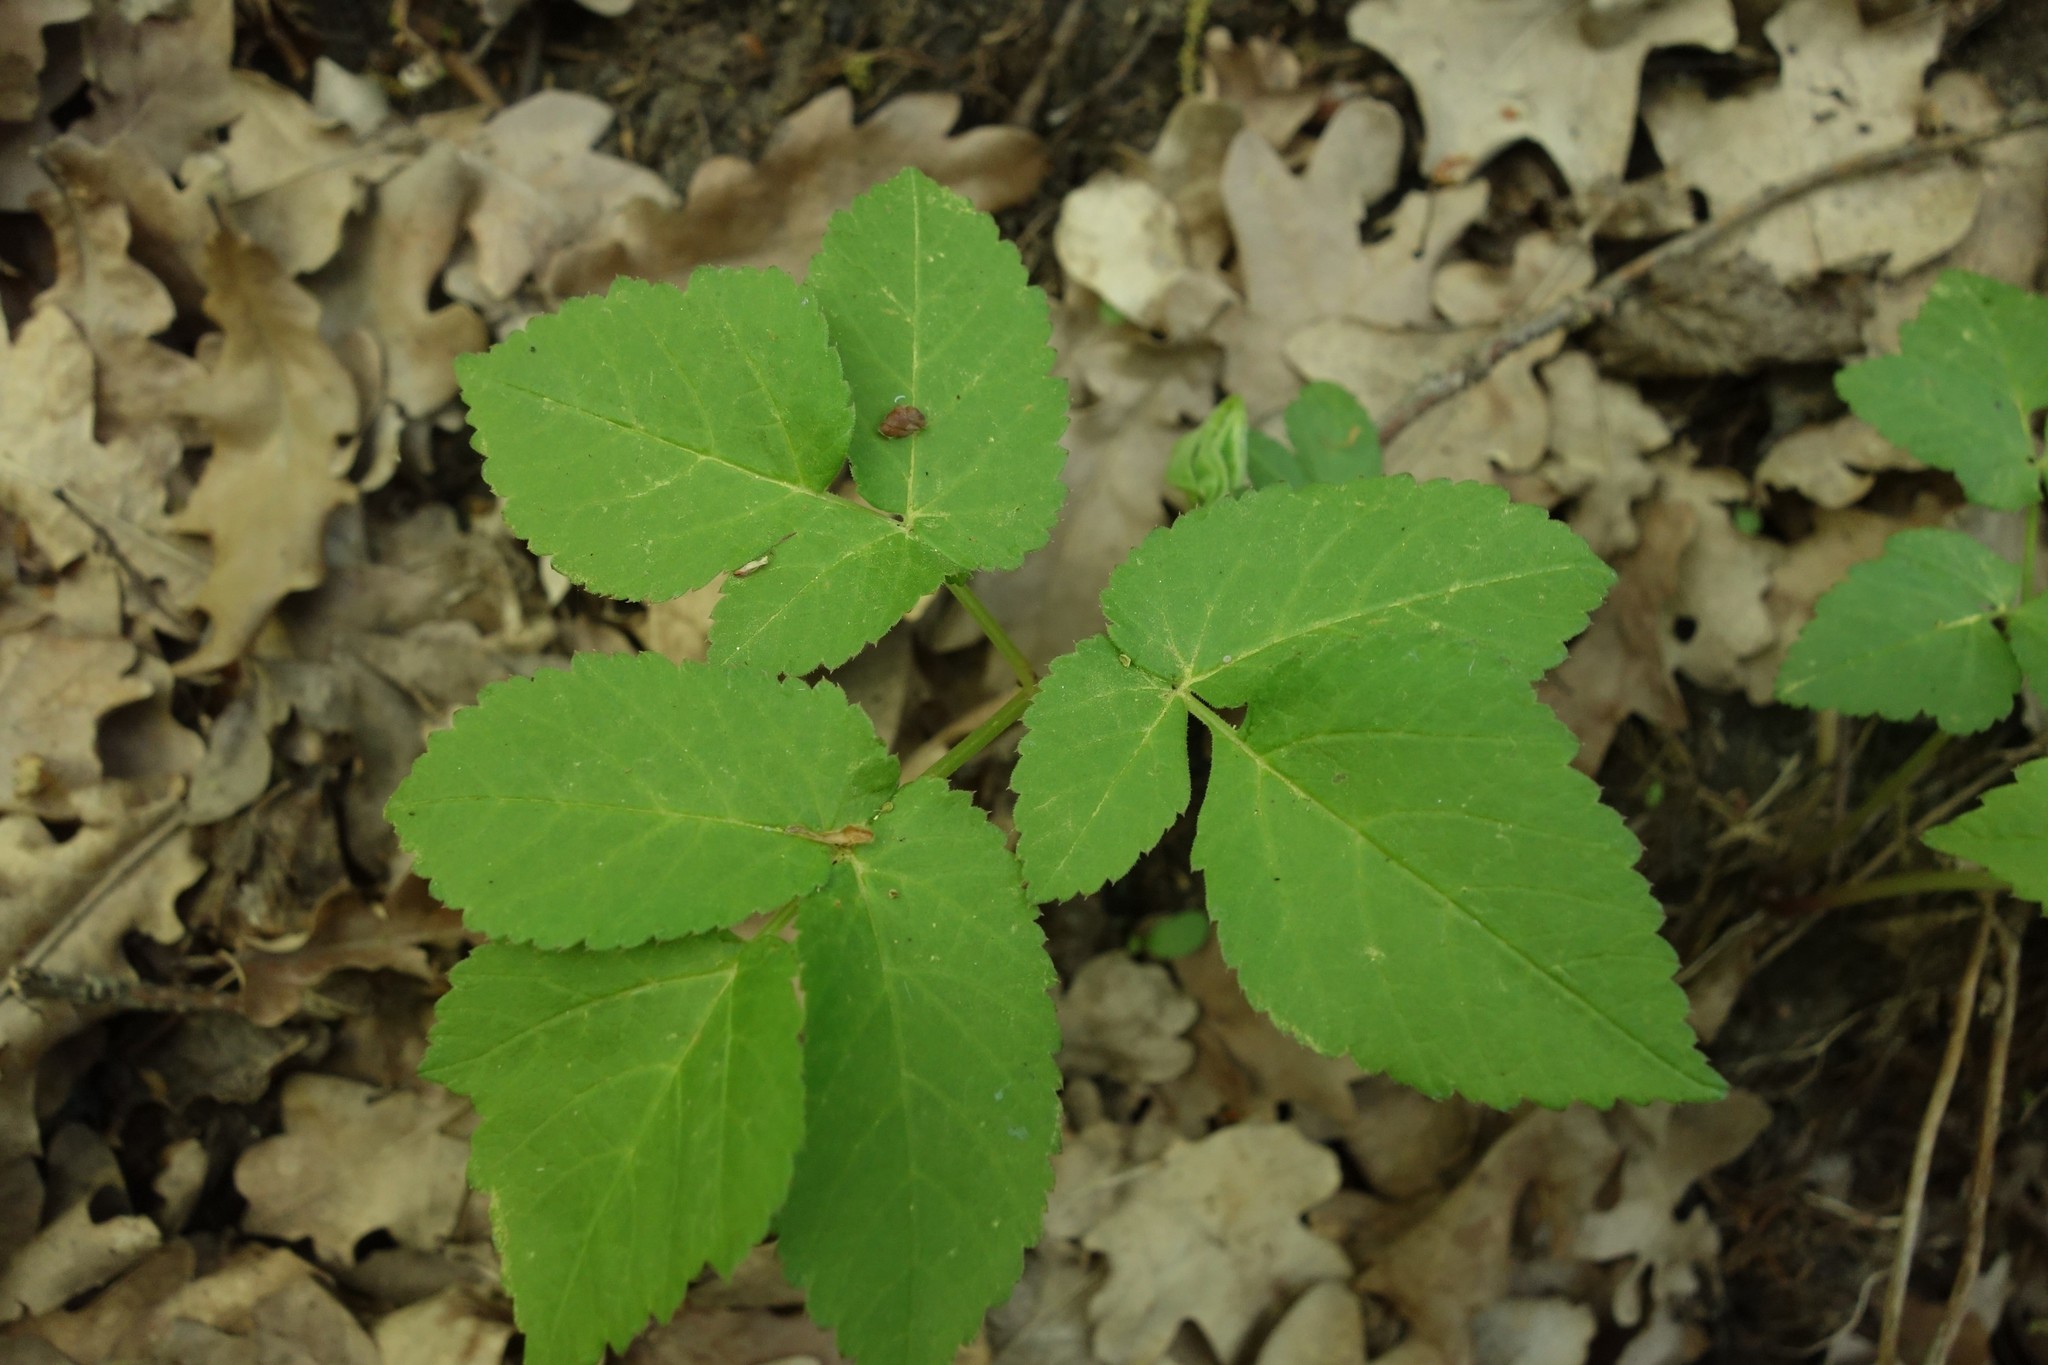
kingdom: Plantae
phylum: Tracheophyta
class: Magnoliopsida
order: Apiales
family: Apiaceae
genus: Aegopodium
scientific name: Aegopodium podagraria
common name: Ground-elder
